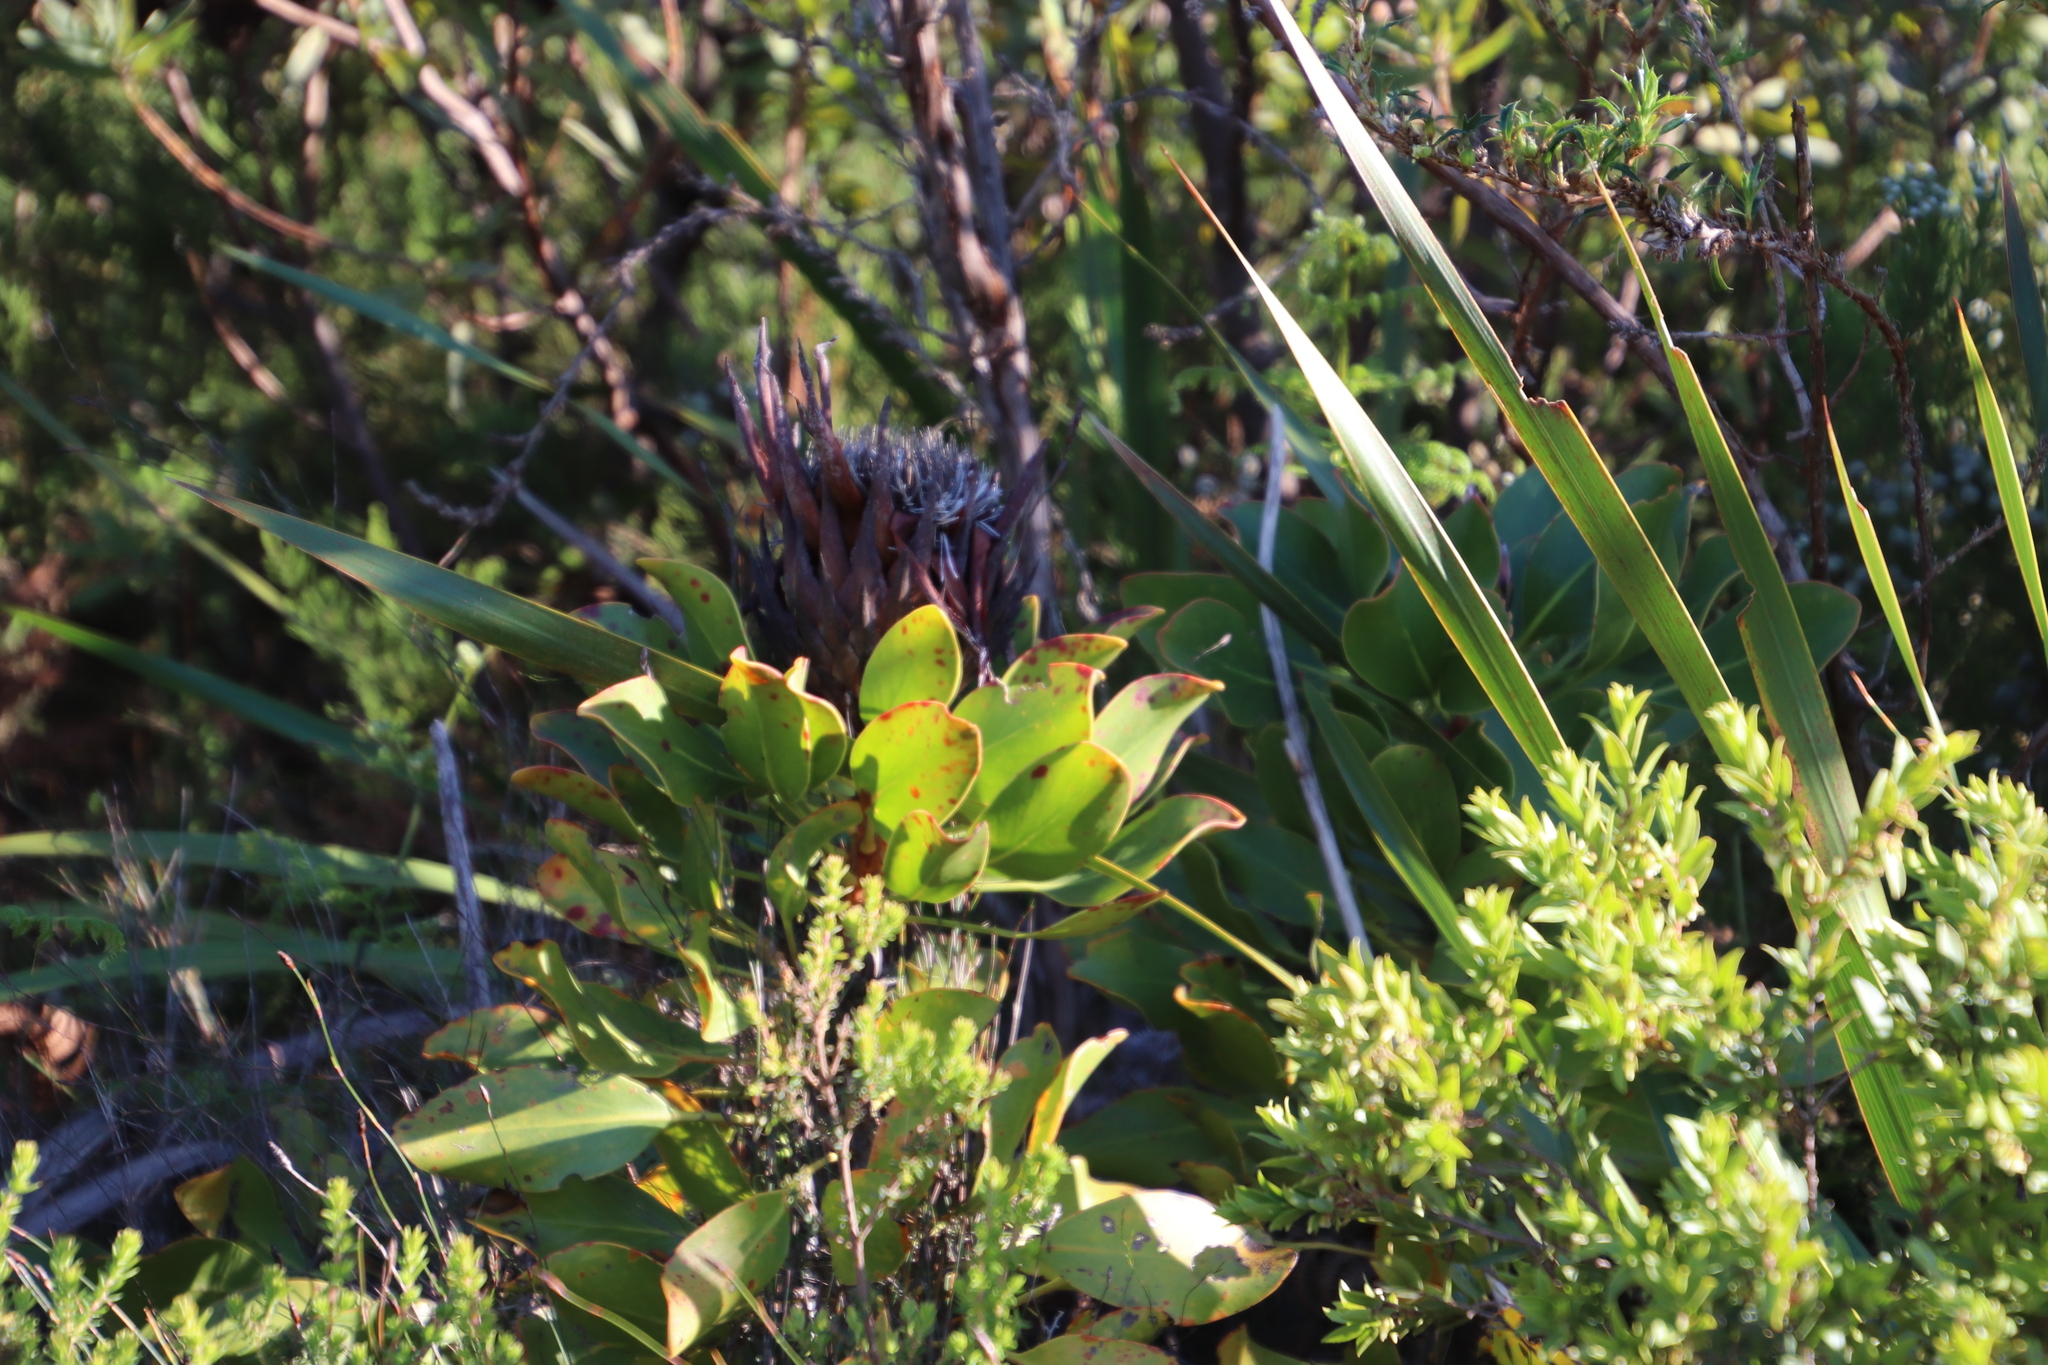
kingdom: Plantae
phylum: Tracheophyta
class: Magnoliopsida
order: Proteales
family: Proteaceae
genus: Protea
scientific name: Protea cynaroides
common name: King protea
